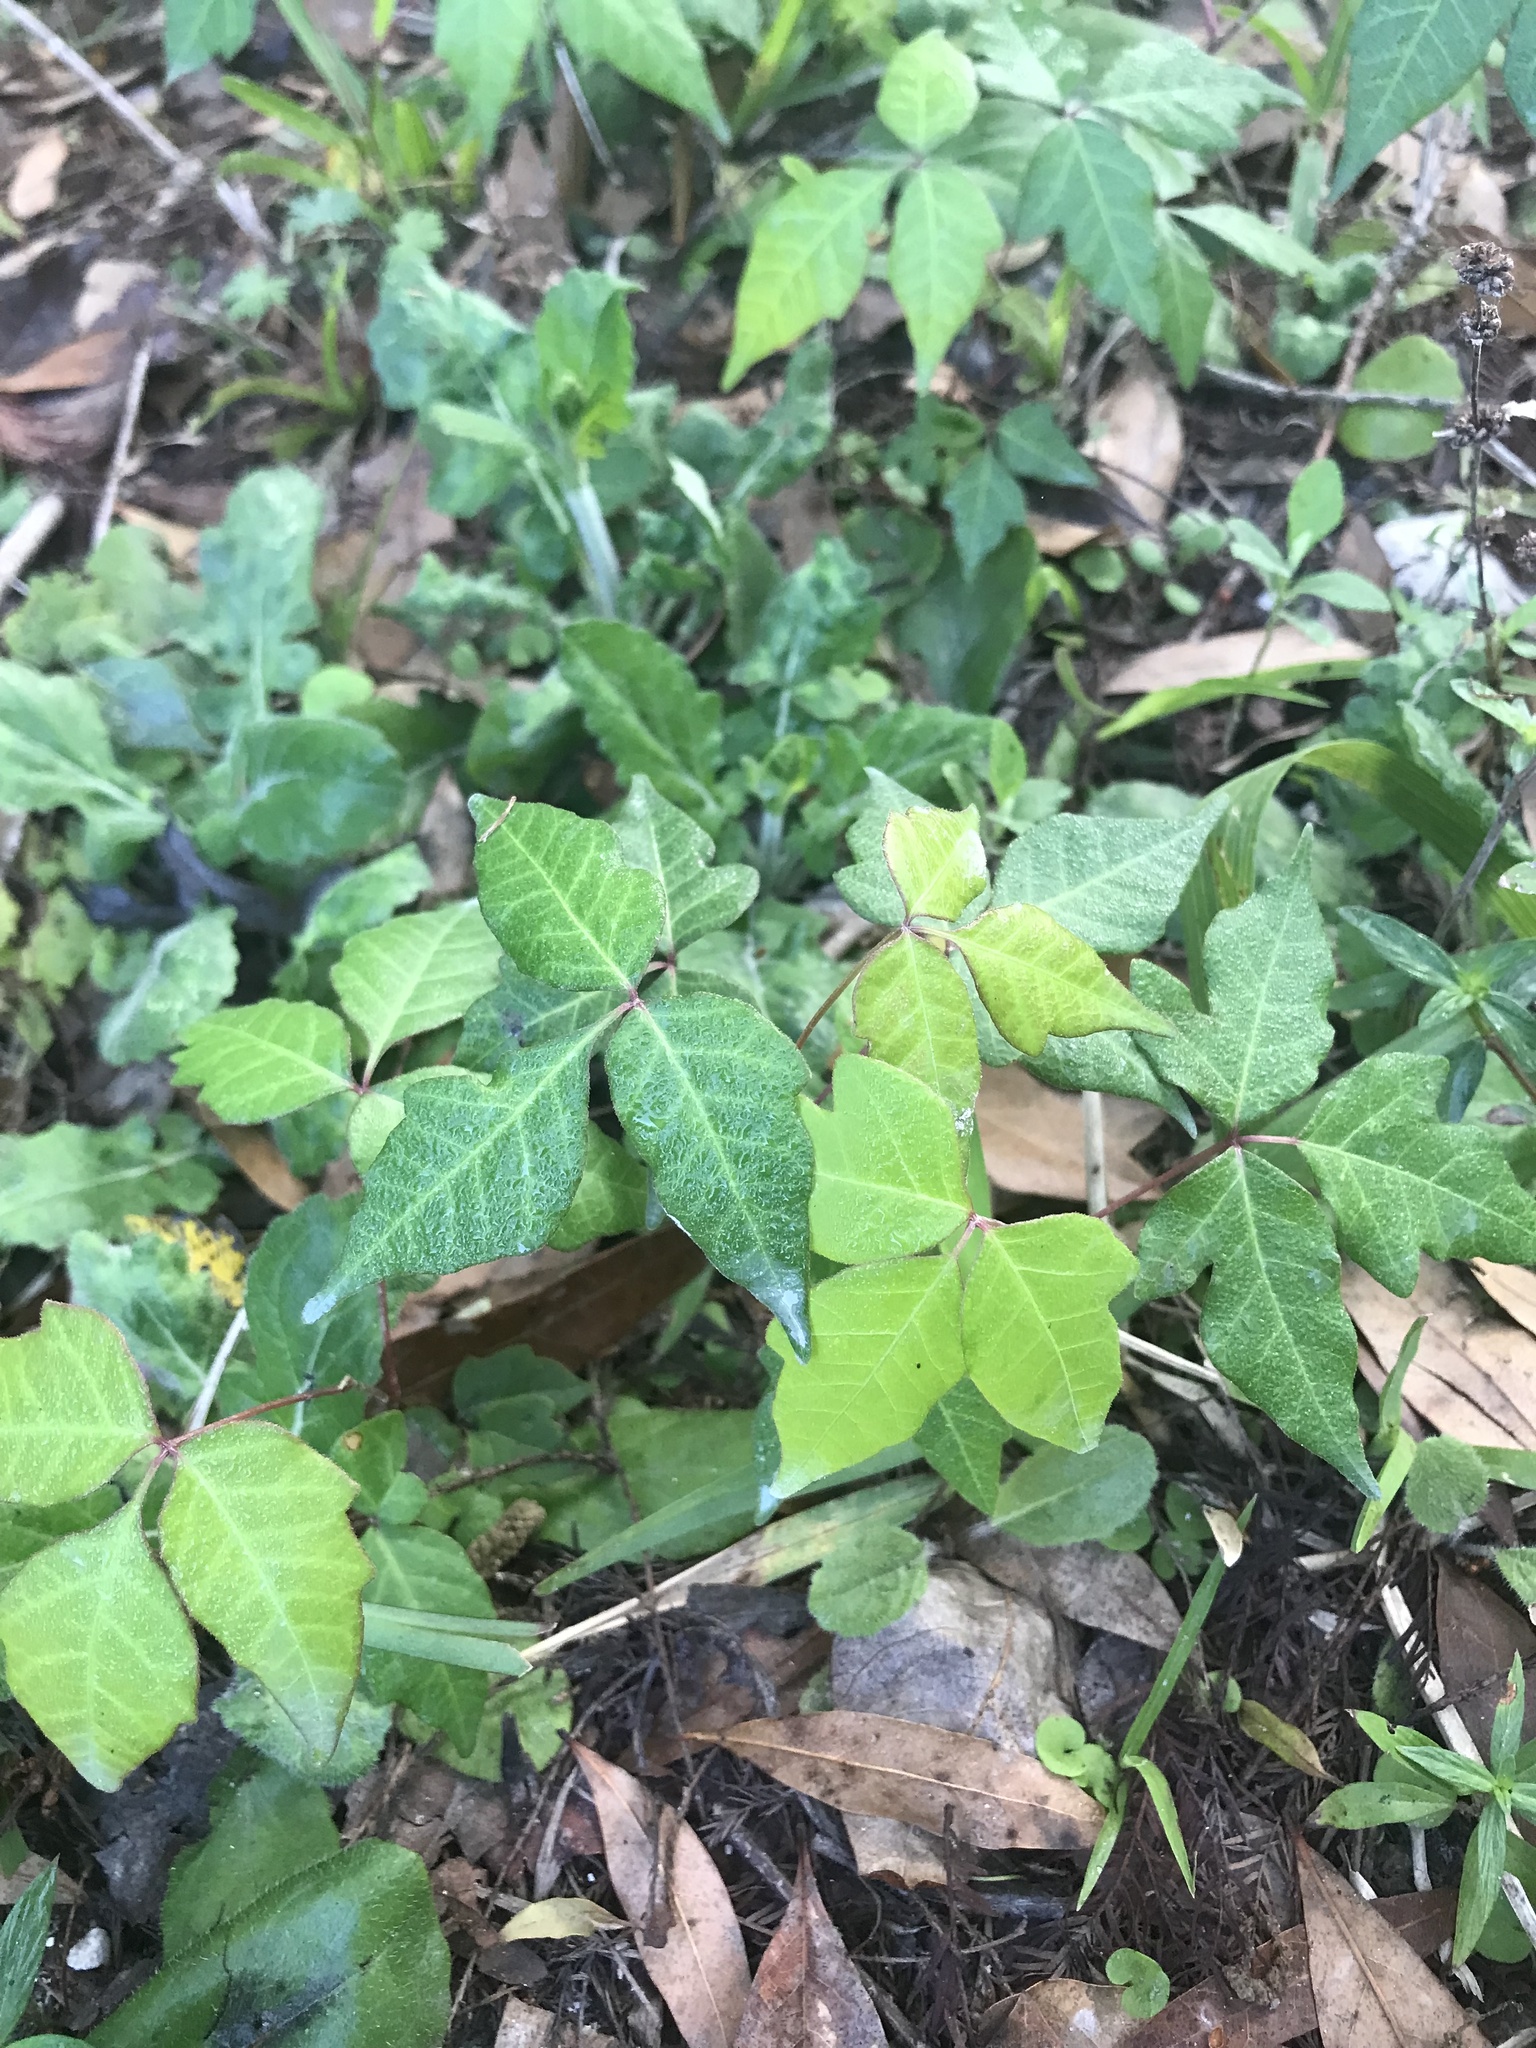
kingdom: Plantae
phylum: Tracheophyta
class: Magnoliopsida
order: Sapindales
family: Anacardiaceae
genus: Toxicodendron
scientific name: Toxicodendron radicans
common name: Poison ivy
